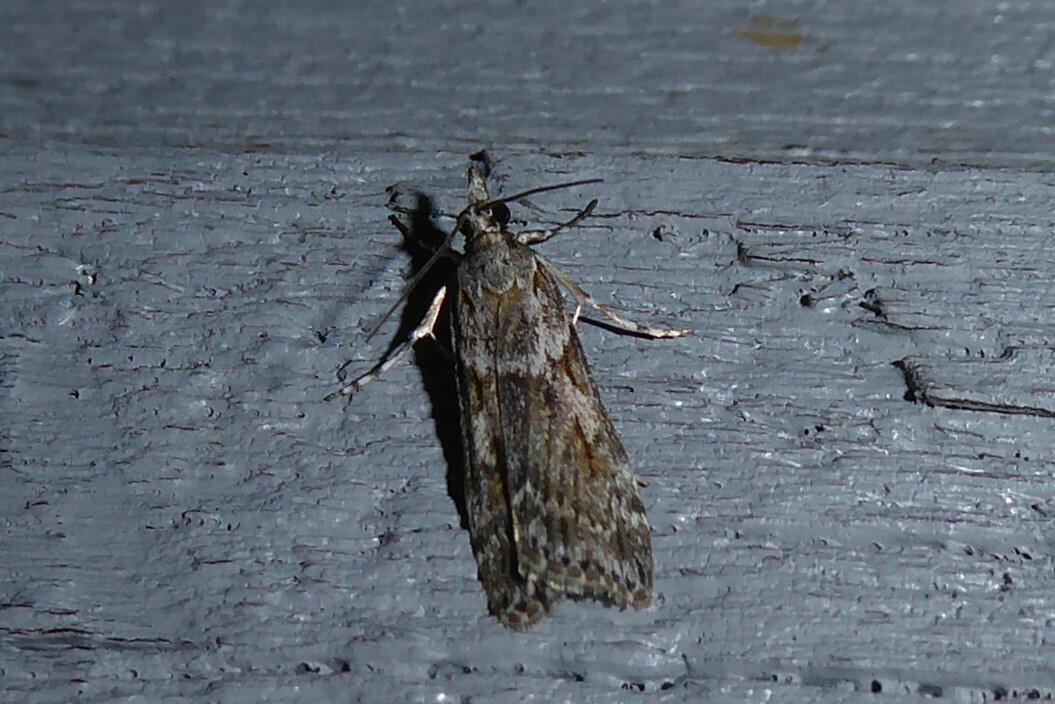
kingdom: Animalia
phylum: Arthropoda
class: Insecta
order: Lepidoptera
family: Crambidae
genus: Scoparia
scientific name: Scoparia halopis
